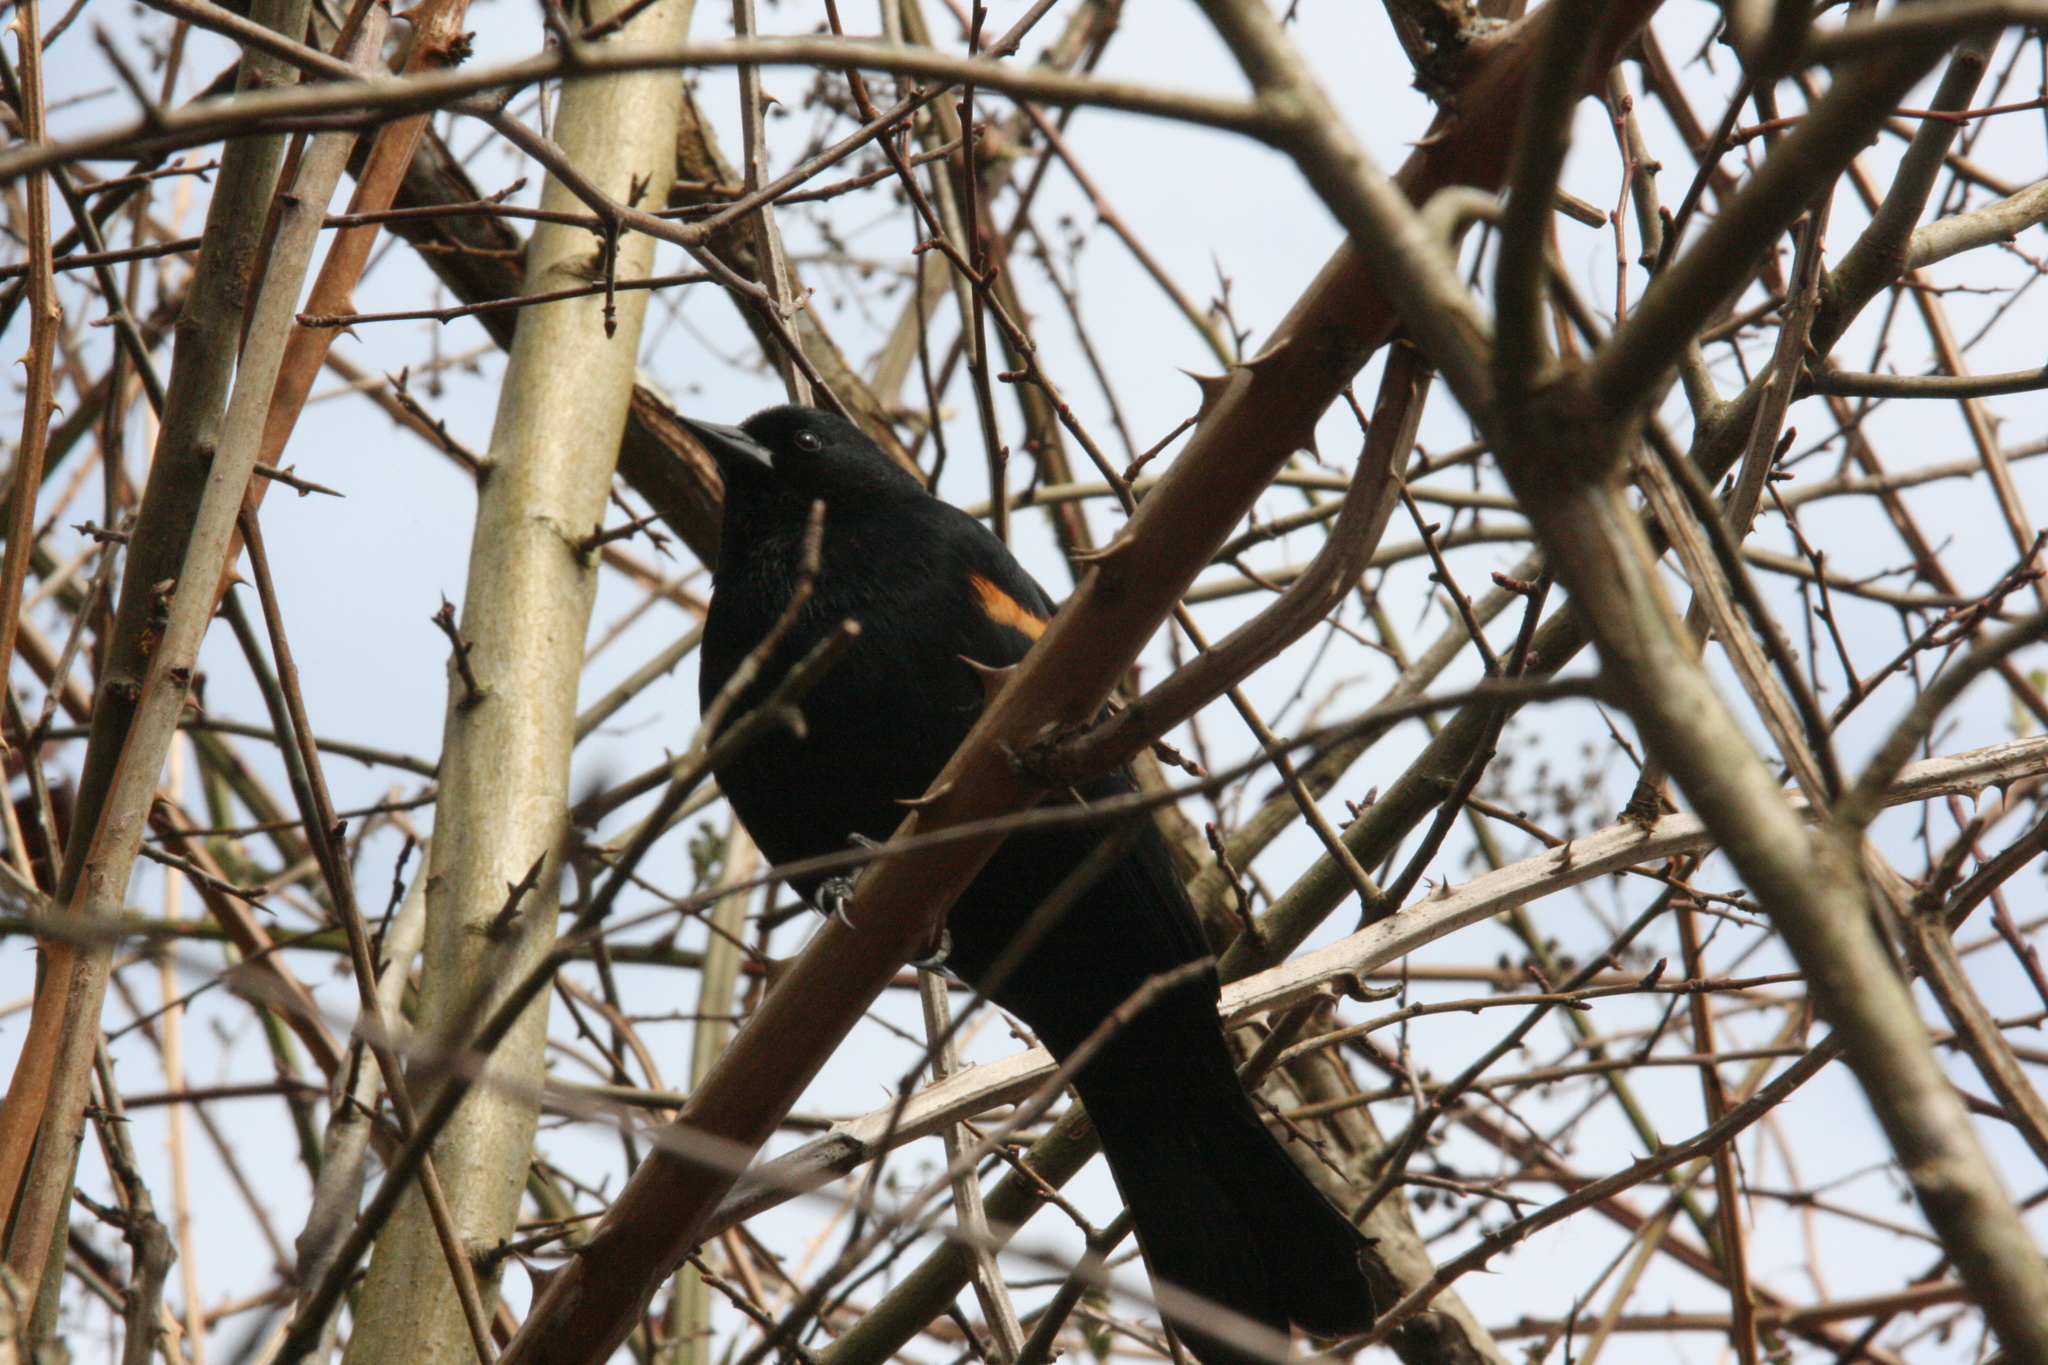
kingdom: Animalia
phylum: Chordata
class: Aves
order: Passeriformes
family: Icteridae
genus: Agelaius
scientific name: Agelaius phoeniceus
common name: Red-winged blackbird
